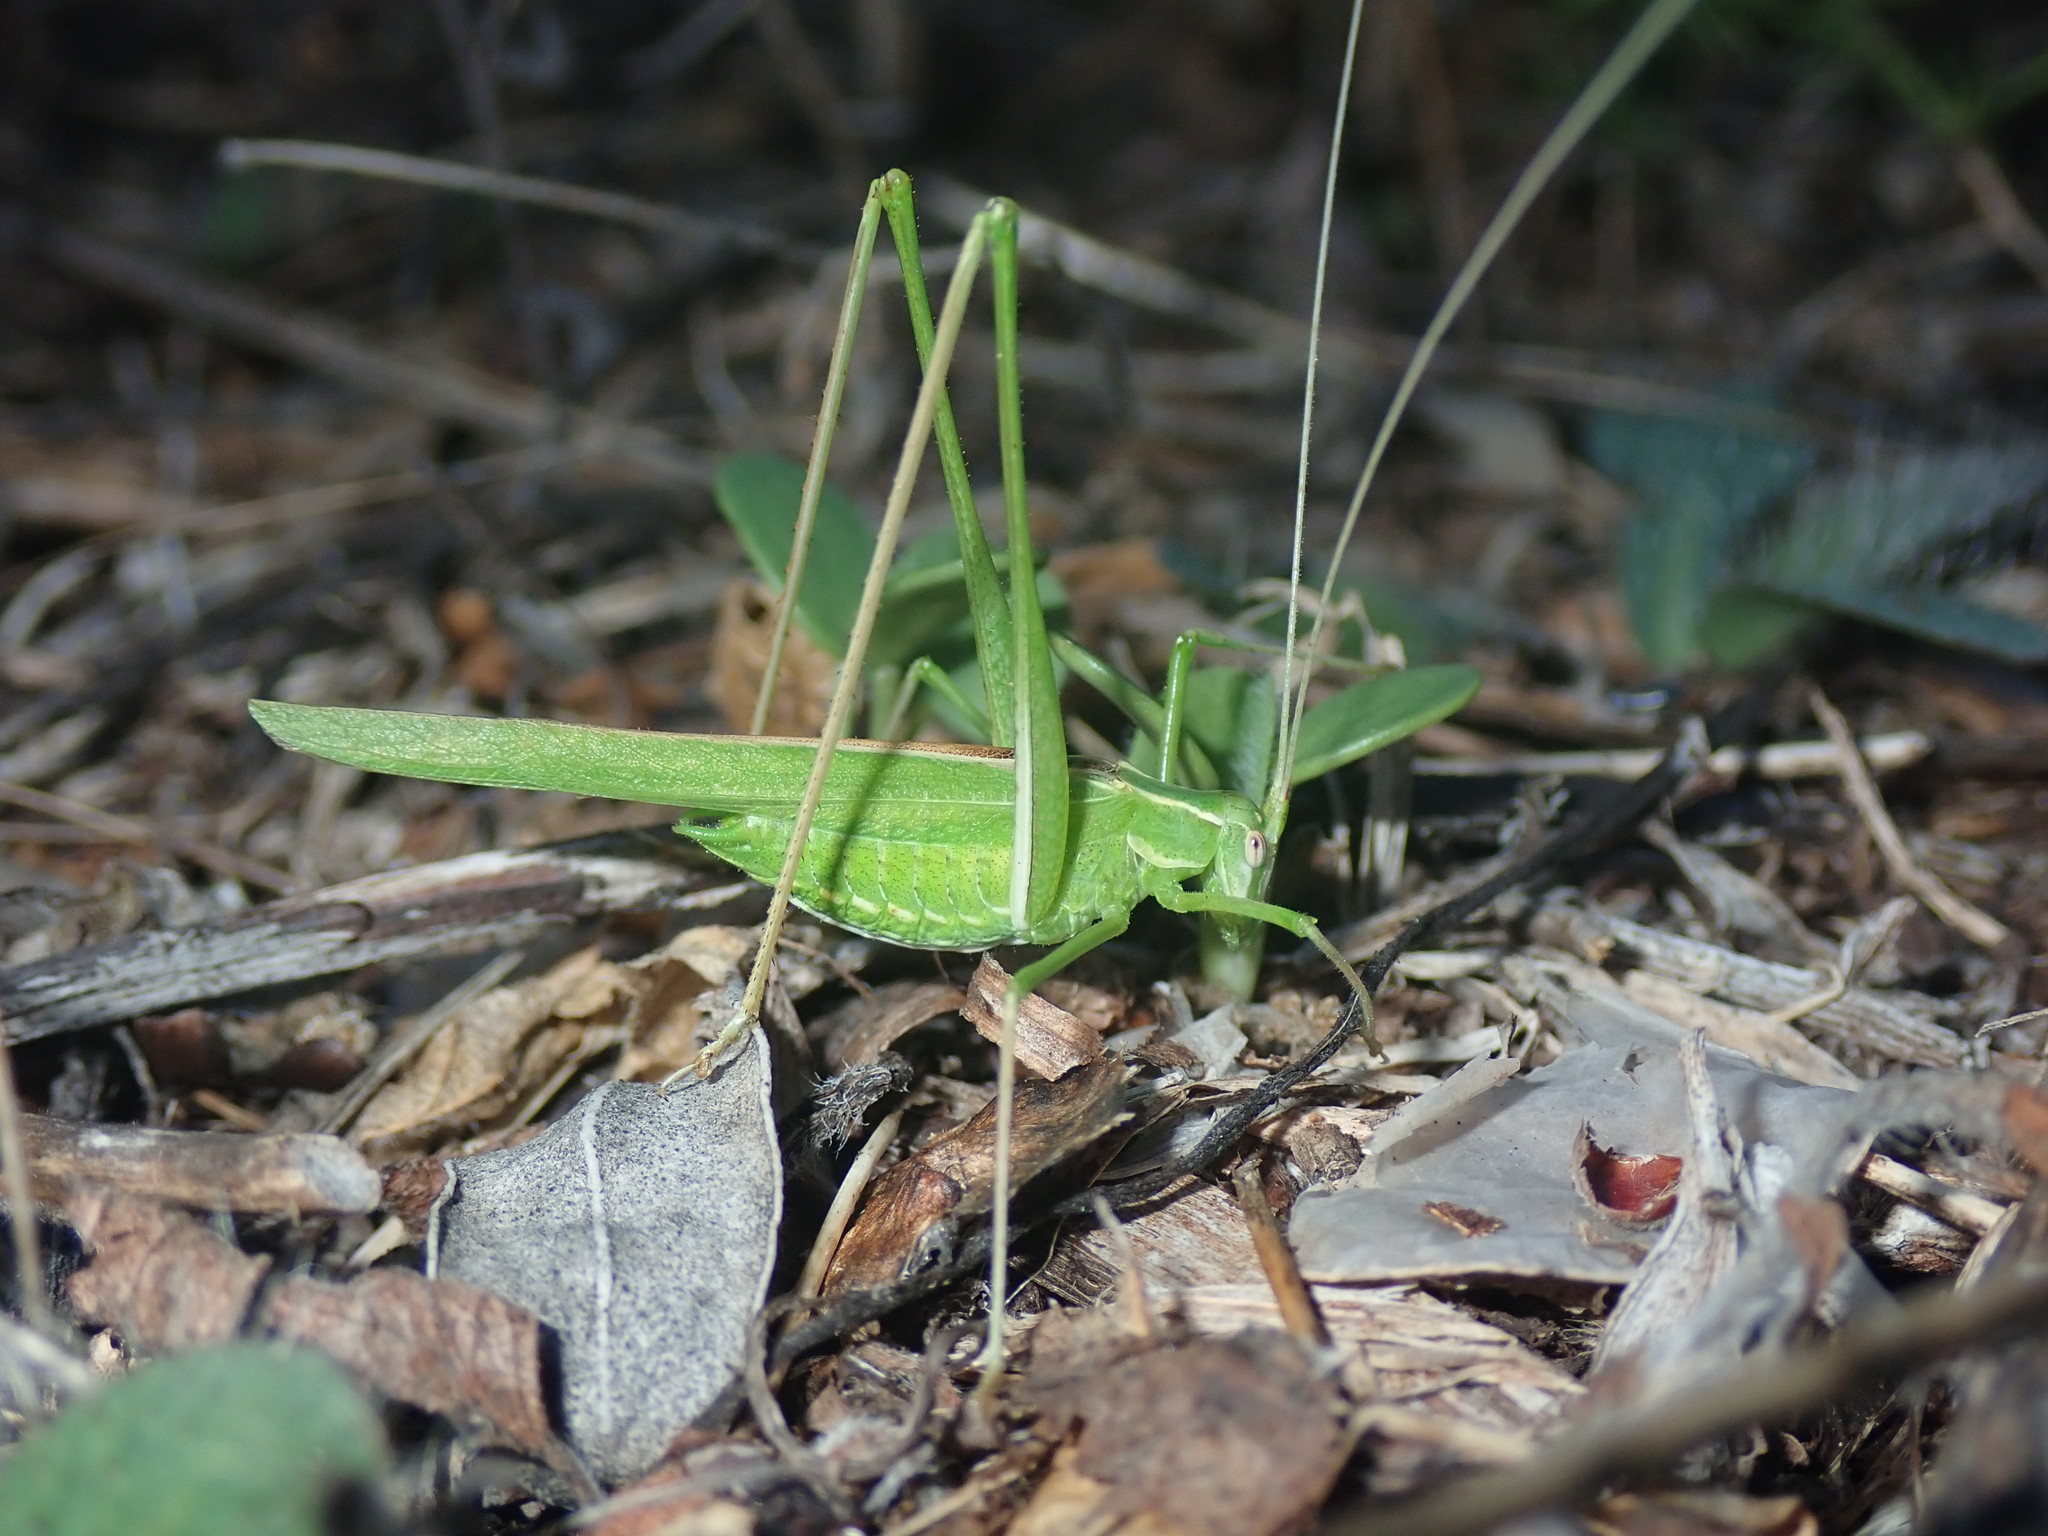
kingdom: Animalia
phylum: Arthropoda
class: Insecta
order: Orthoptera
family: Tettigoniidae
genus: Tylopsis
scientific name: Tylopsis lilifolia
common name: Lily bush-cricket
